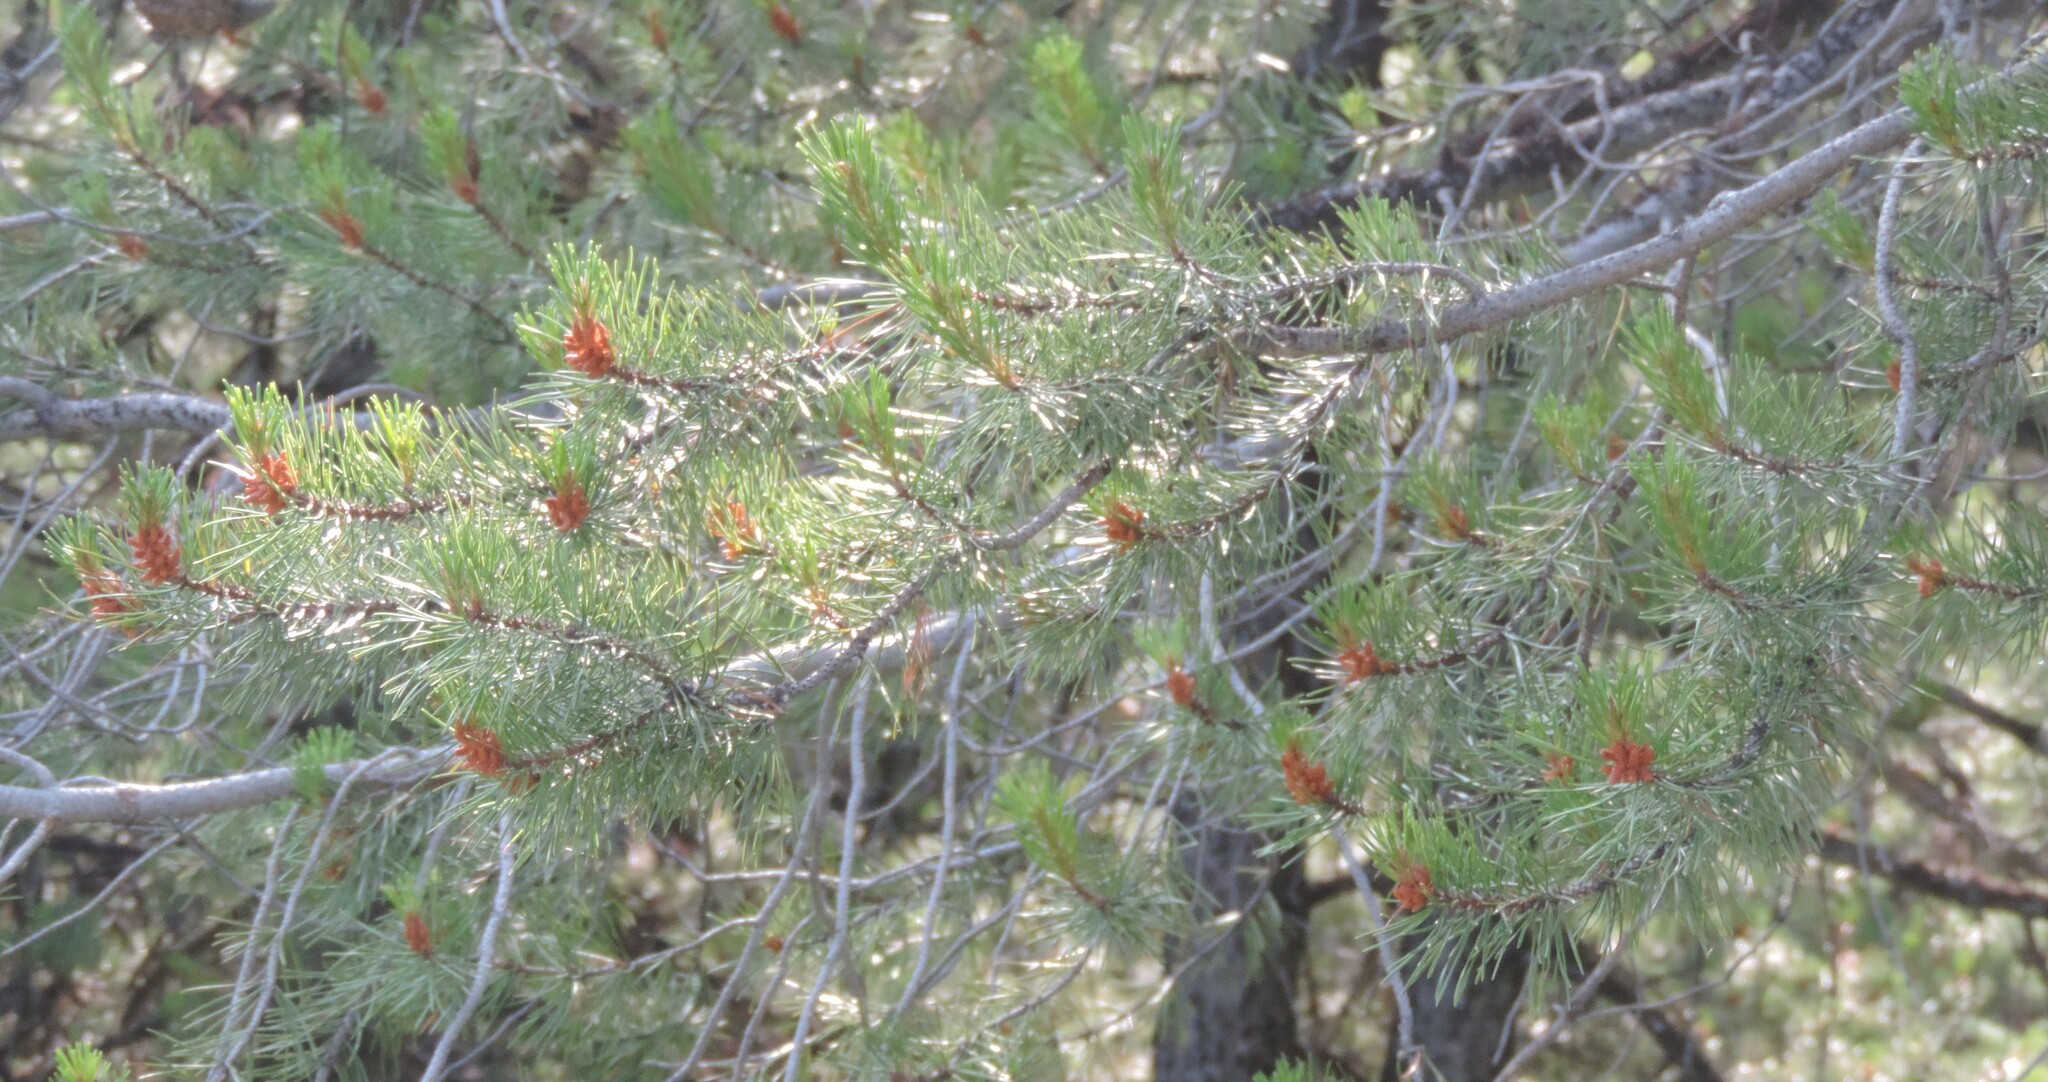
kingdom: Plantae
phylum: Tracheophyta
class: Pinopsida
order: Pinales
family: Pinaceae
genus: Pinus
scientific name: Pinus contorta
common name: Lodgepole pine
